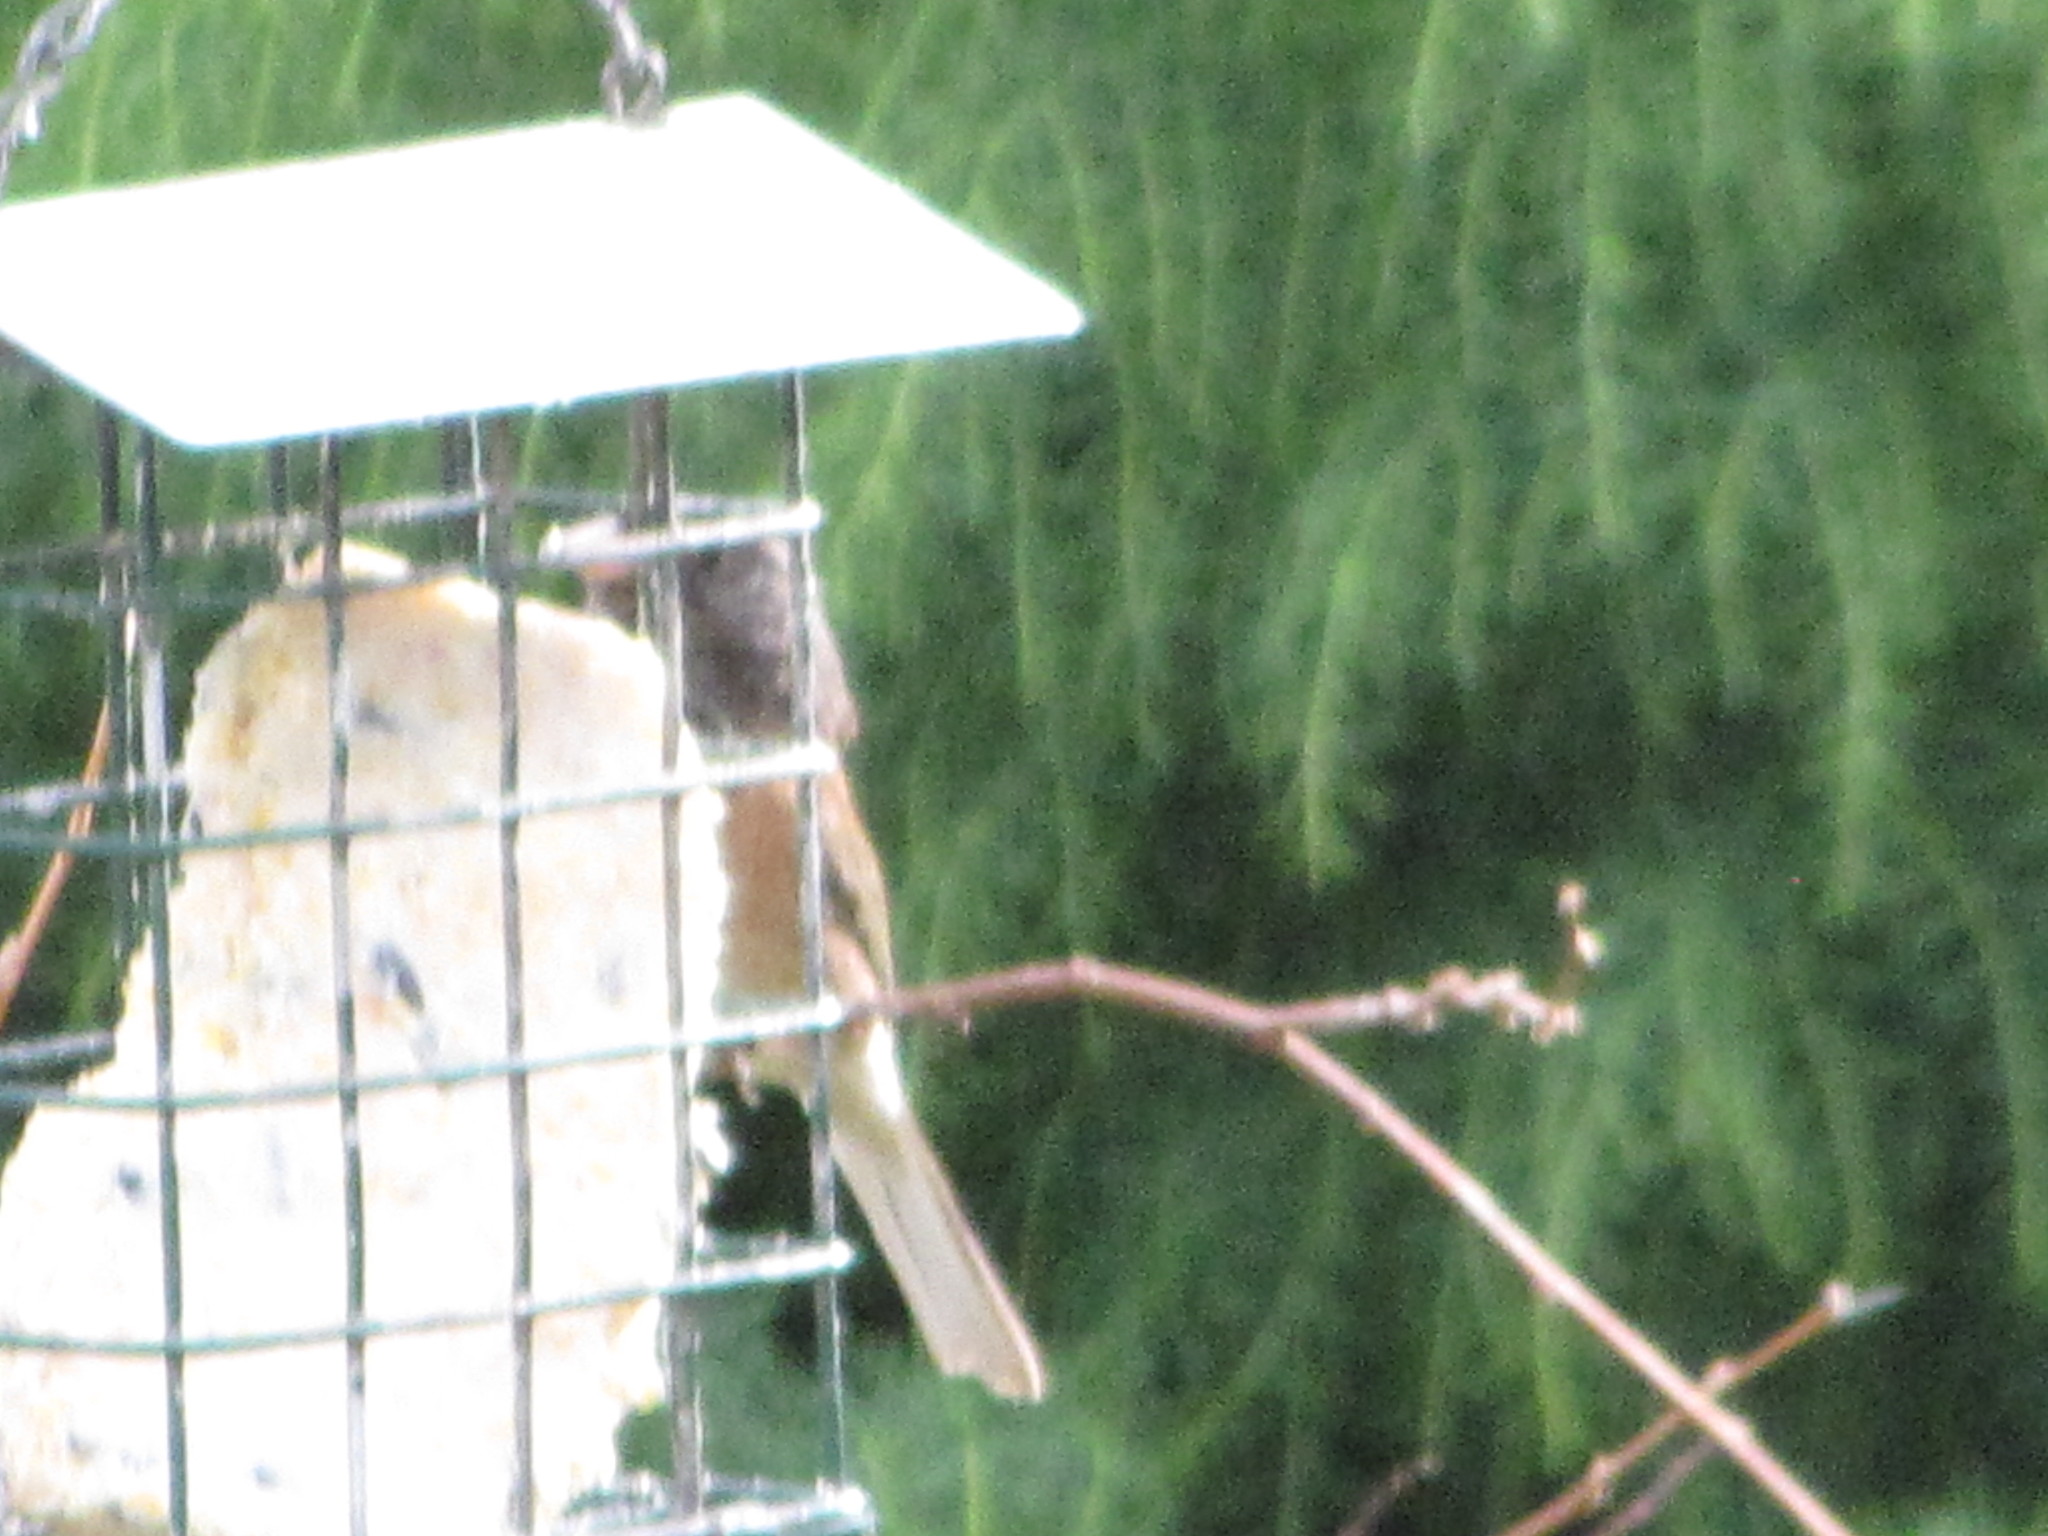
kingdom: Animalia
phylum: Chordata
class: Aves
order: Passeriformes
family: Passerellidae
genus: Junco
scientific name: Junco hyemalis
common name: Dark-eyed junco
